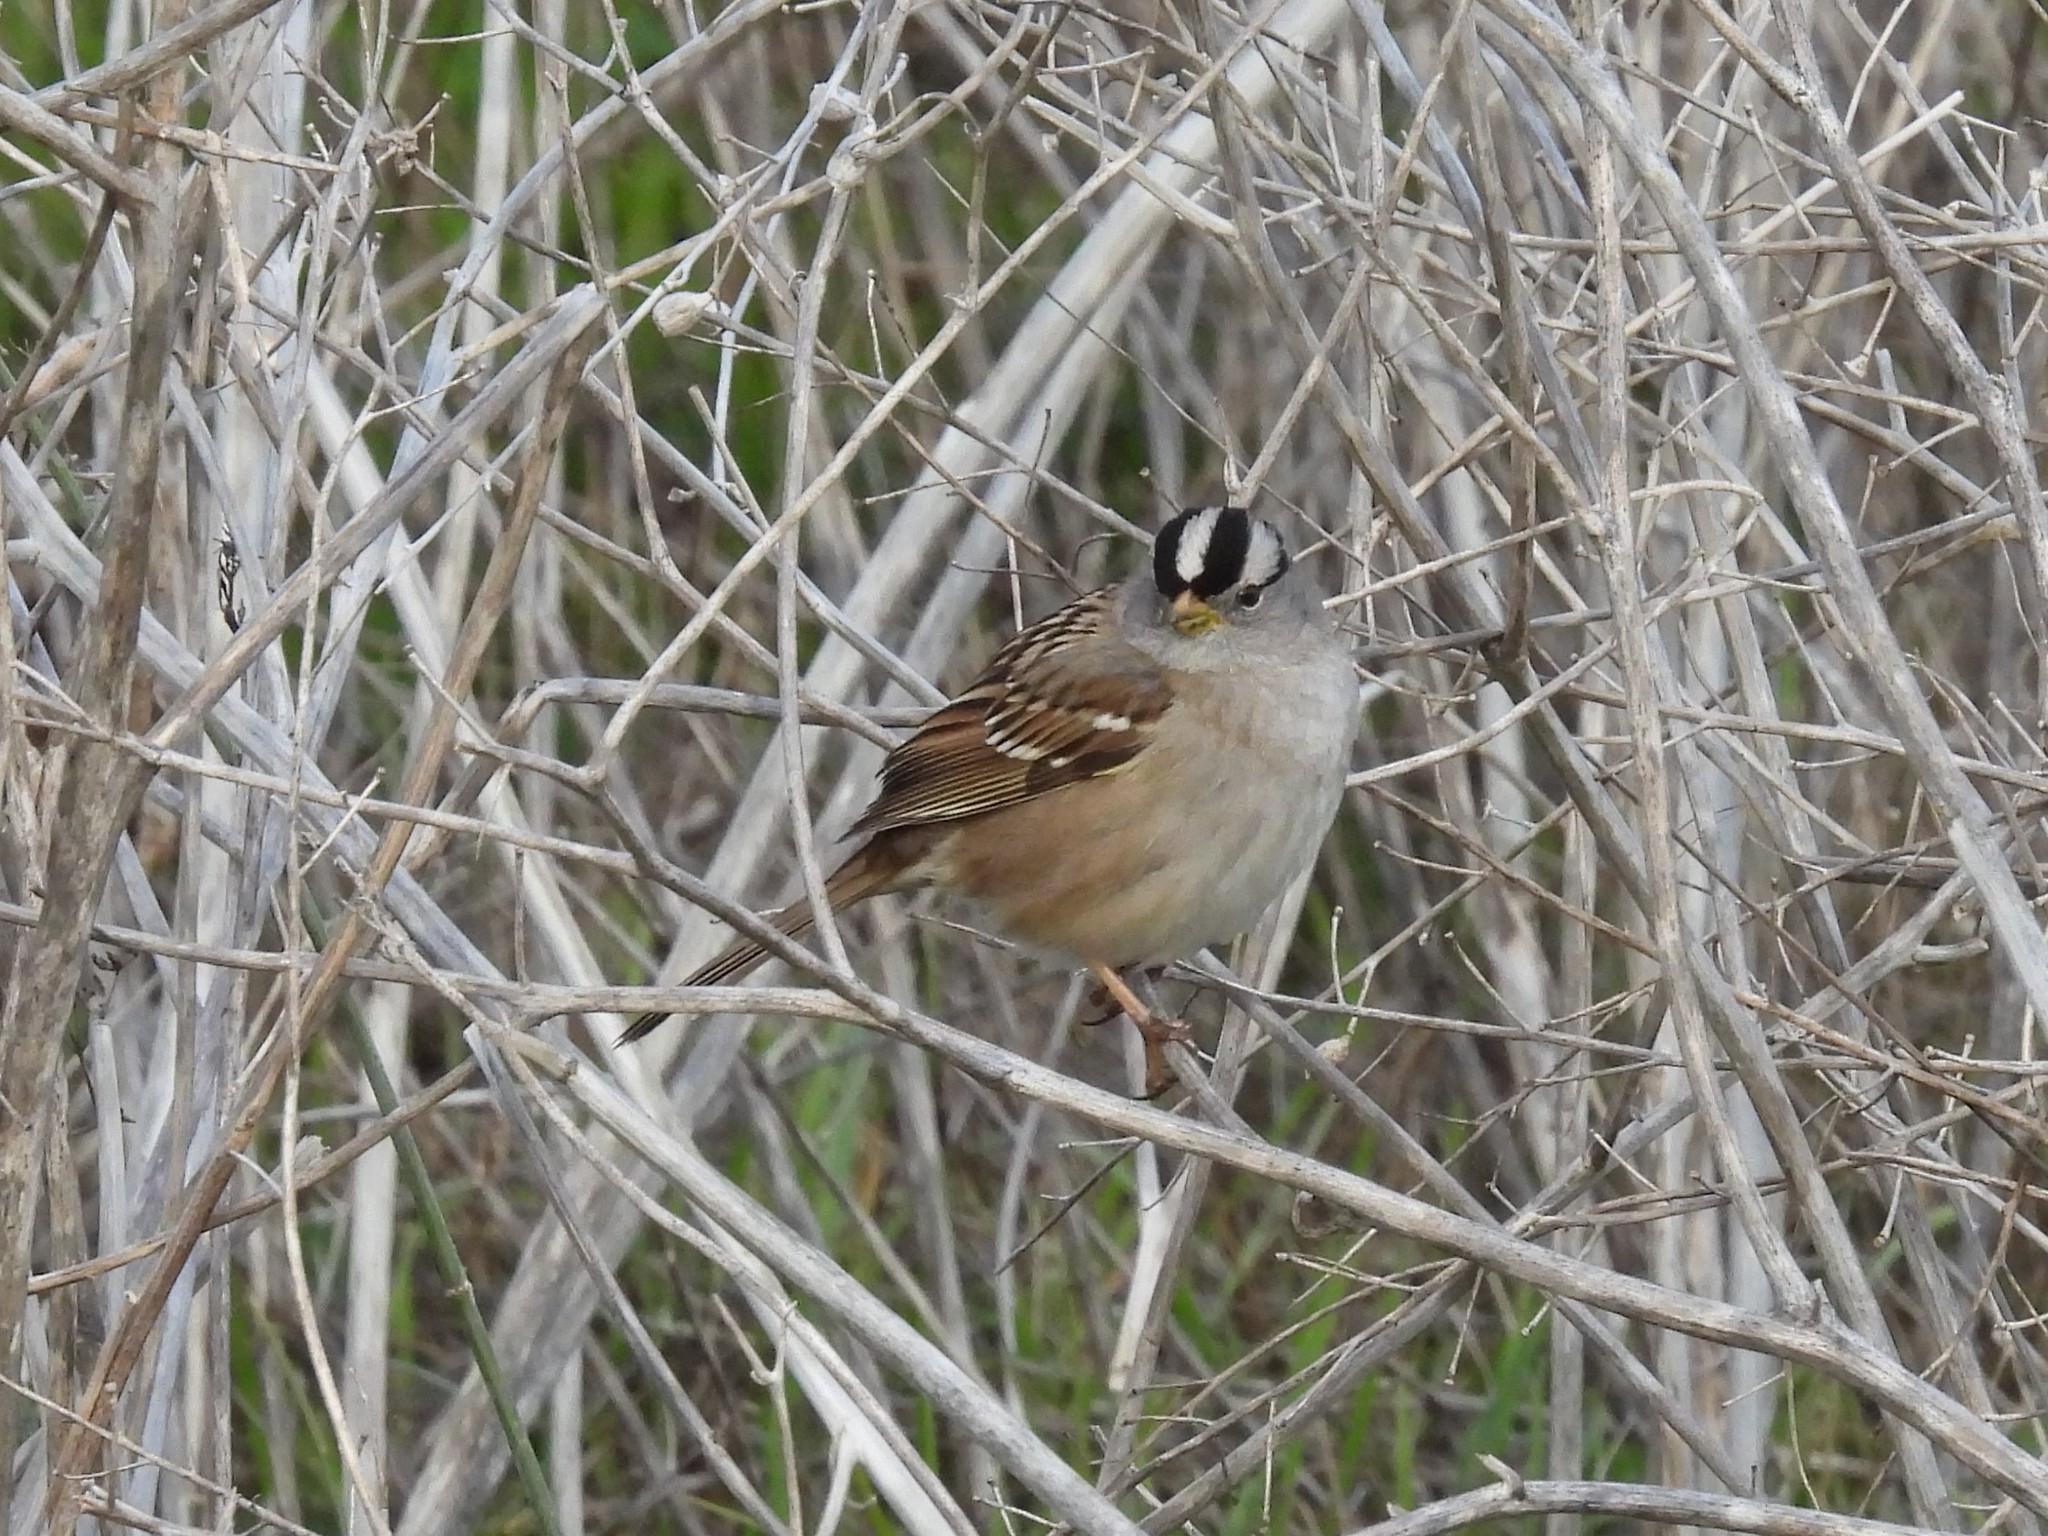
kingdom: Animalia
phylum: Chordata
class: Aves
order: Passeriformes
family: Passerellidae
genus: Zonotrichia
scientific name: Zonotrichia leucophrys
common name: White-crowned sparrow
